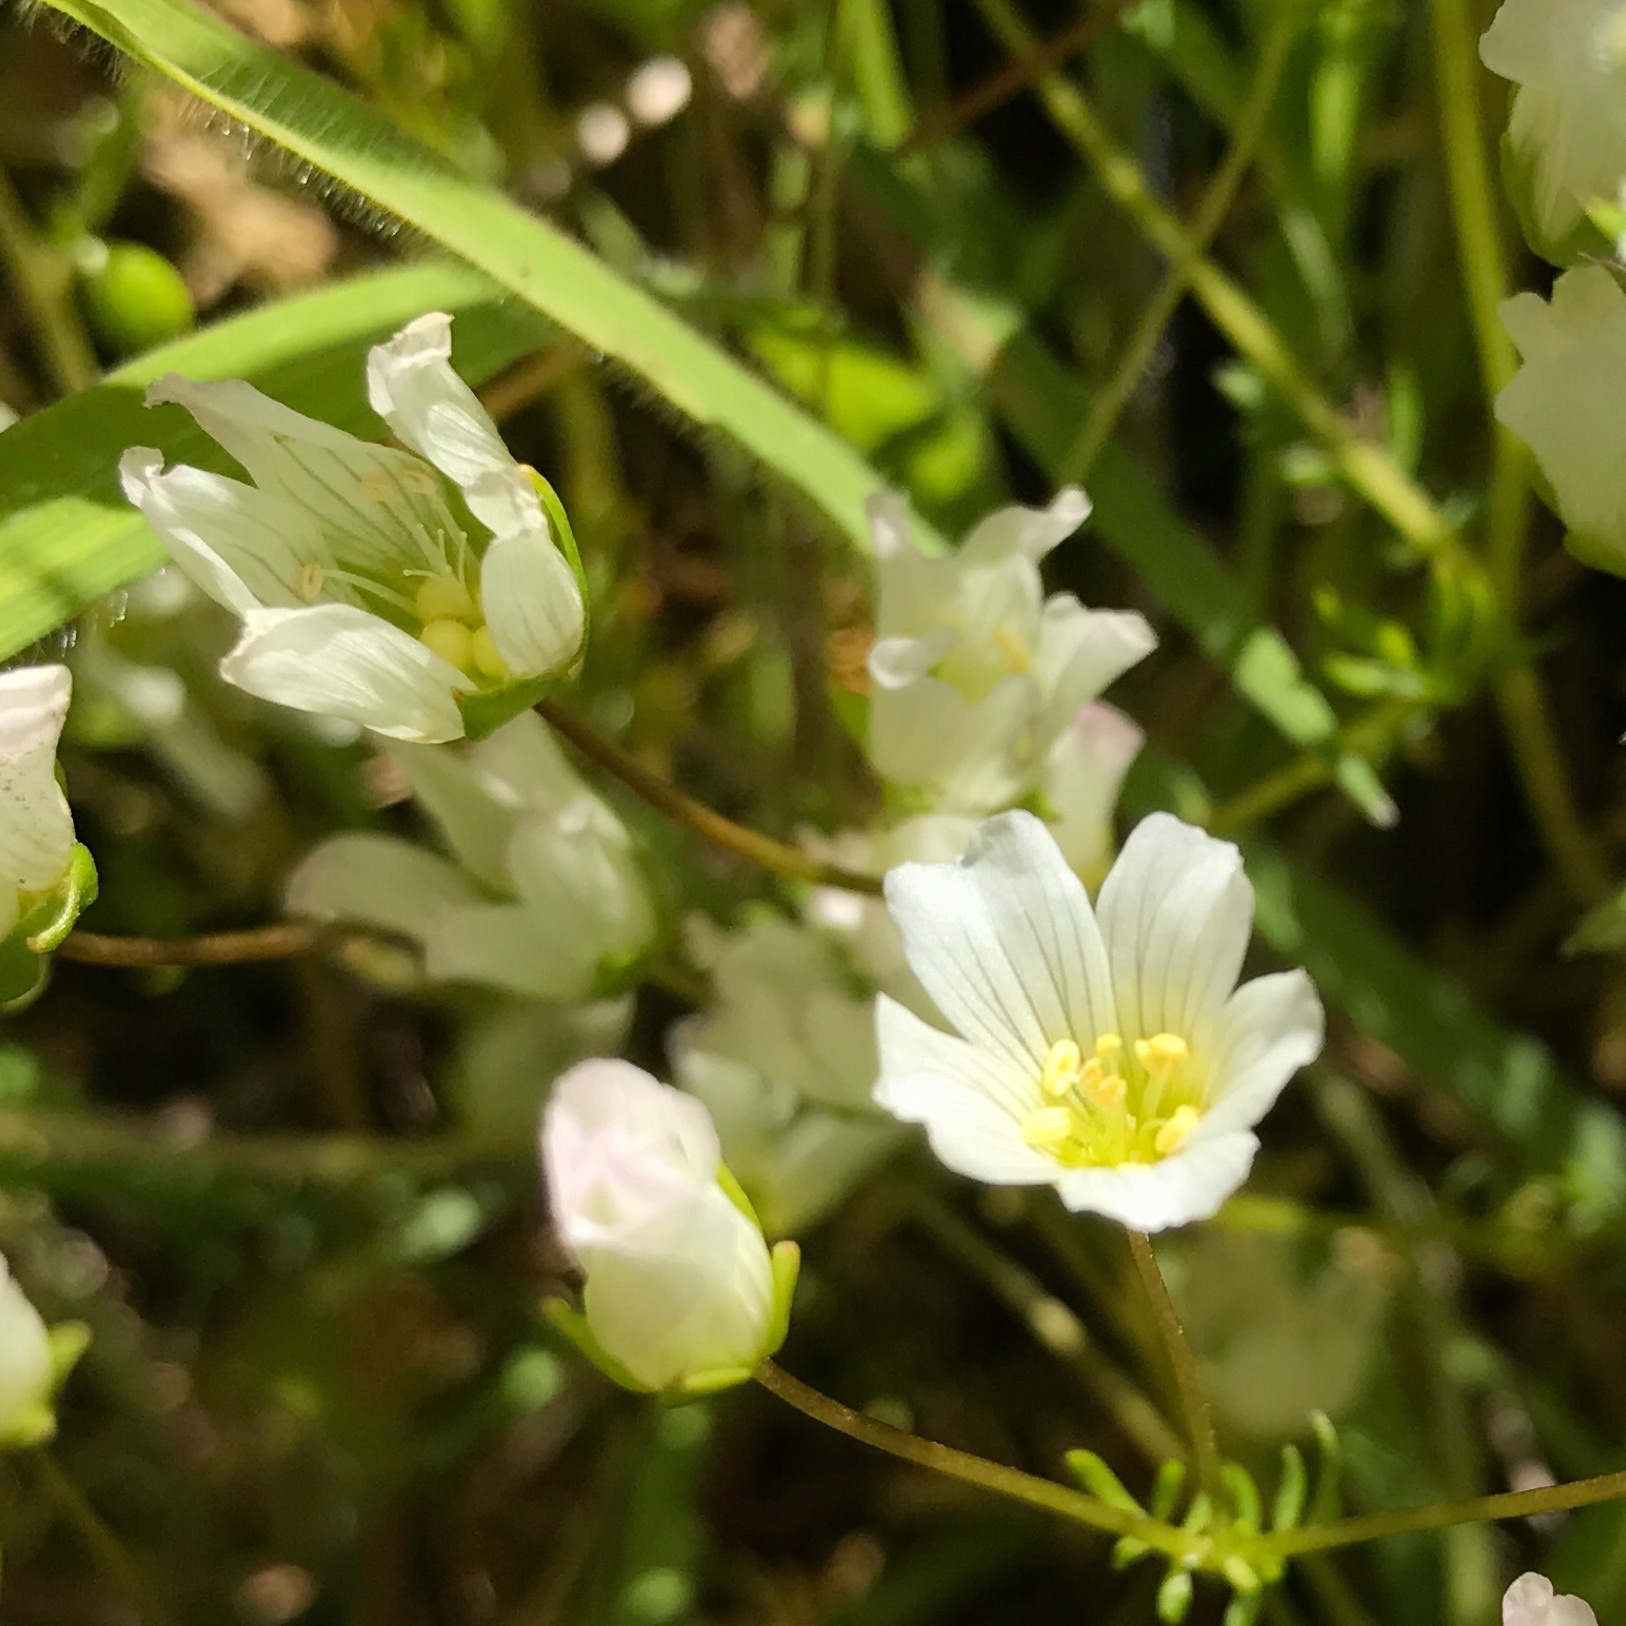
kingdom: Plantae
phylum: Tracheophyta
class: Magnoliopsida
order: Brassicales
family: Limnanthaceae
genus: Limnanthes
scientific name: Limnanthes alba
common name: Meadowfoam
